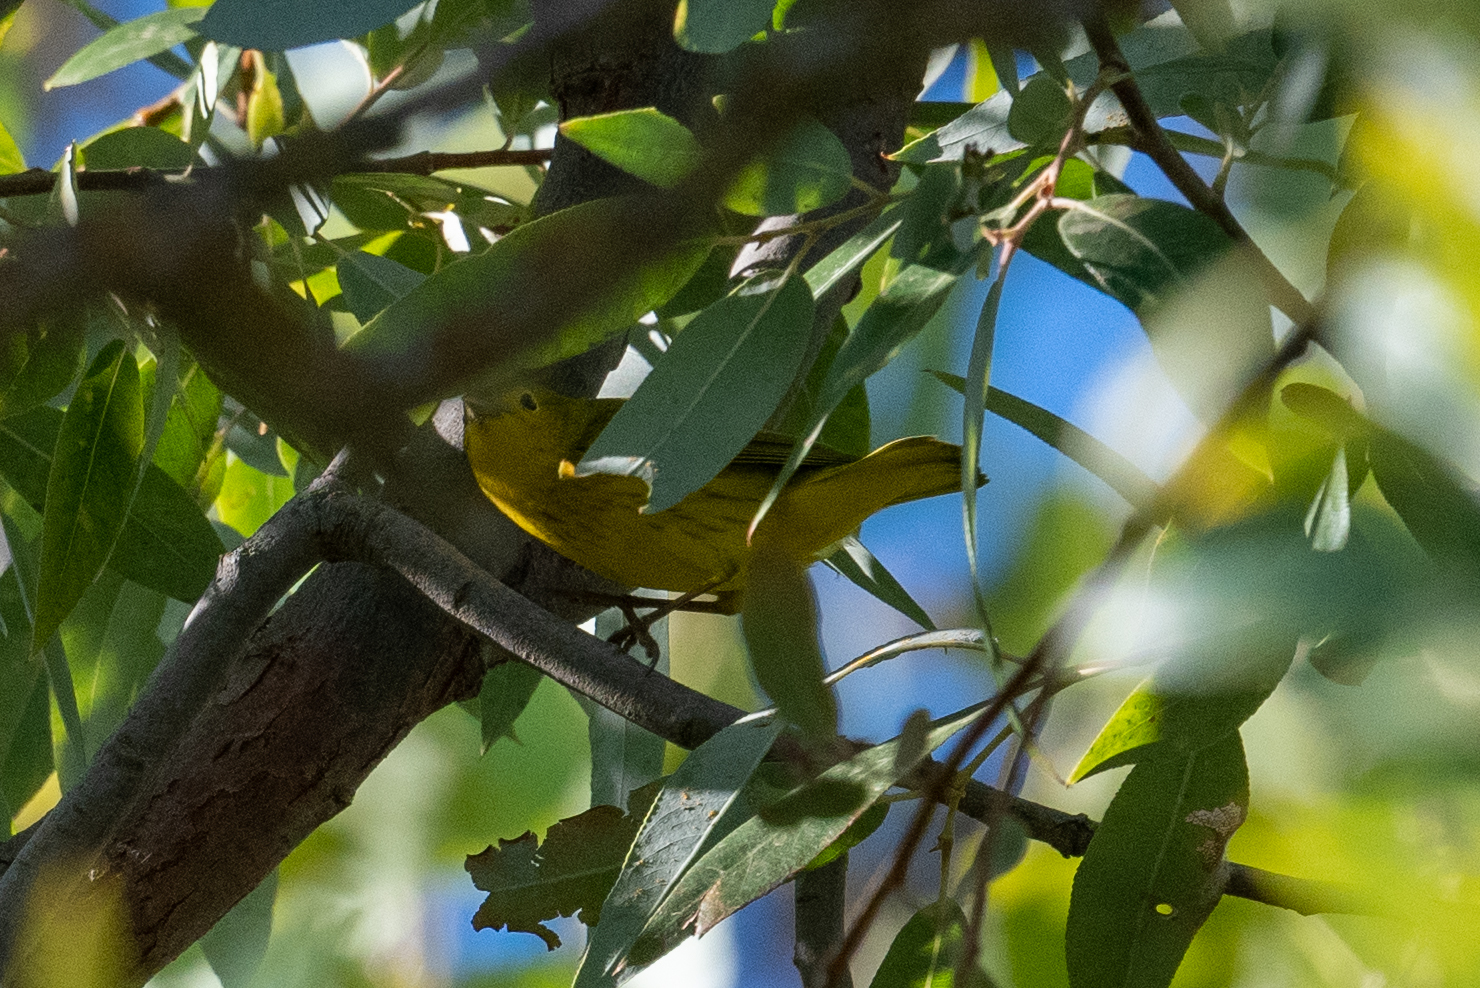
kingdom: Animalia
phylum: Chordata
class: Aves
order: Passeriformes
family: Parulidae
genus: Setophaga
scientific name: Setophaga petechia
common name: Yellow warbler
